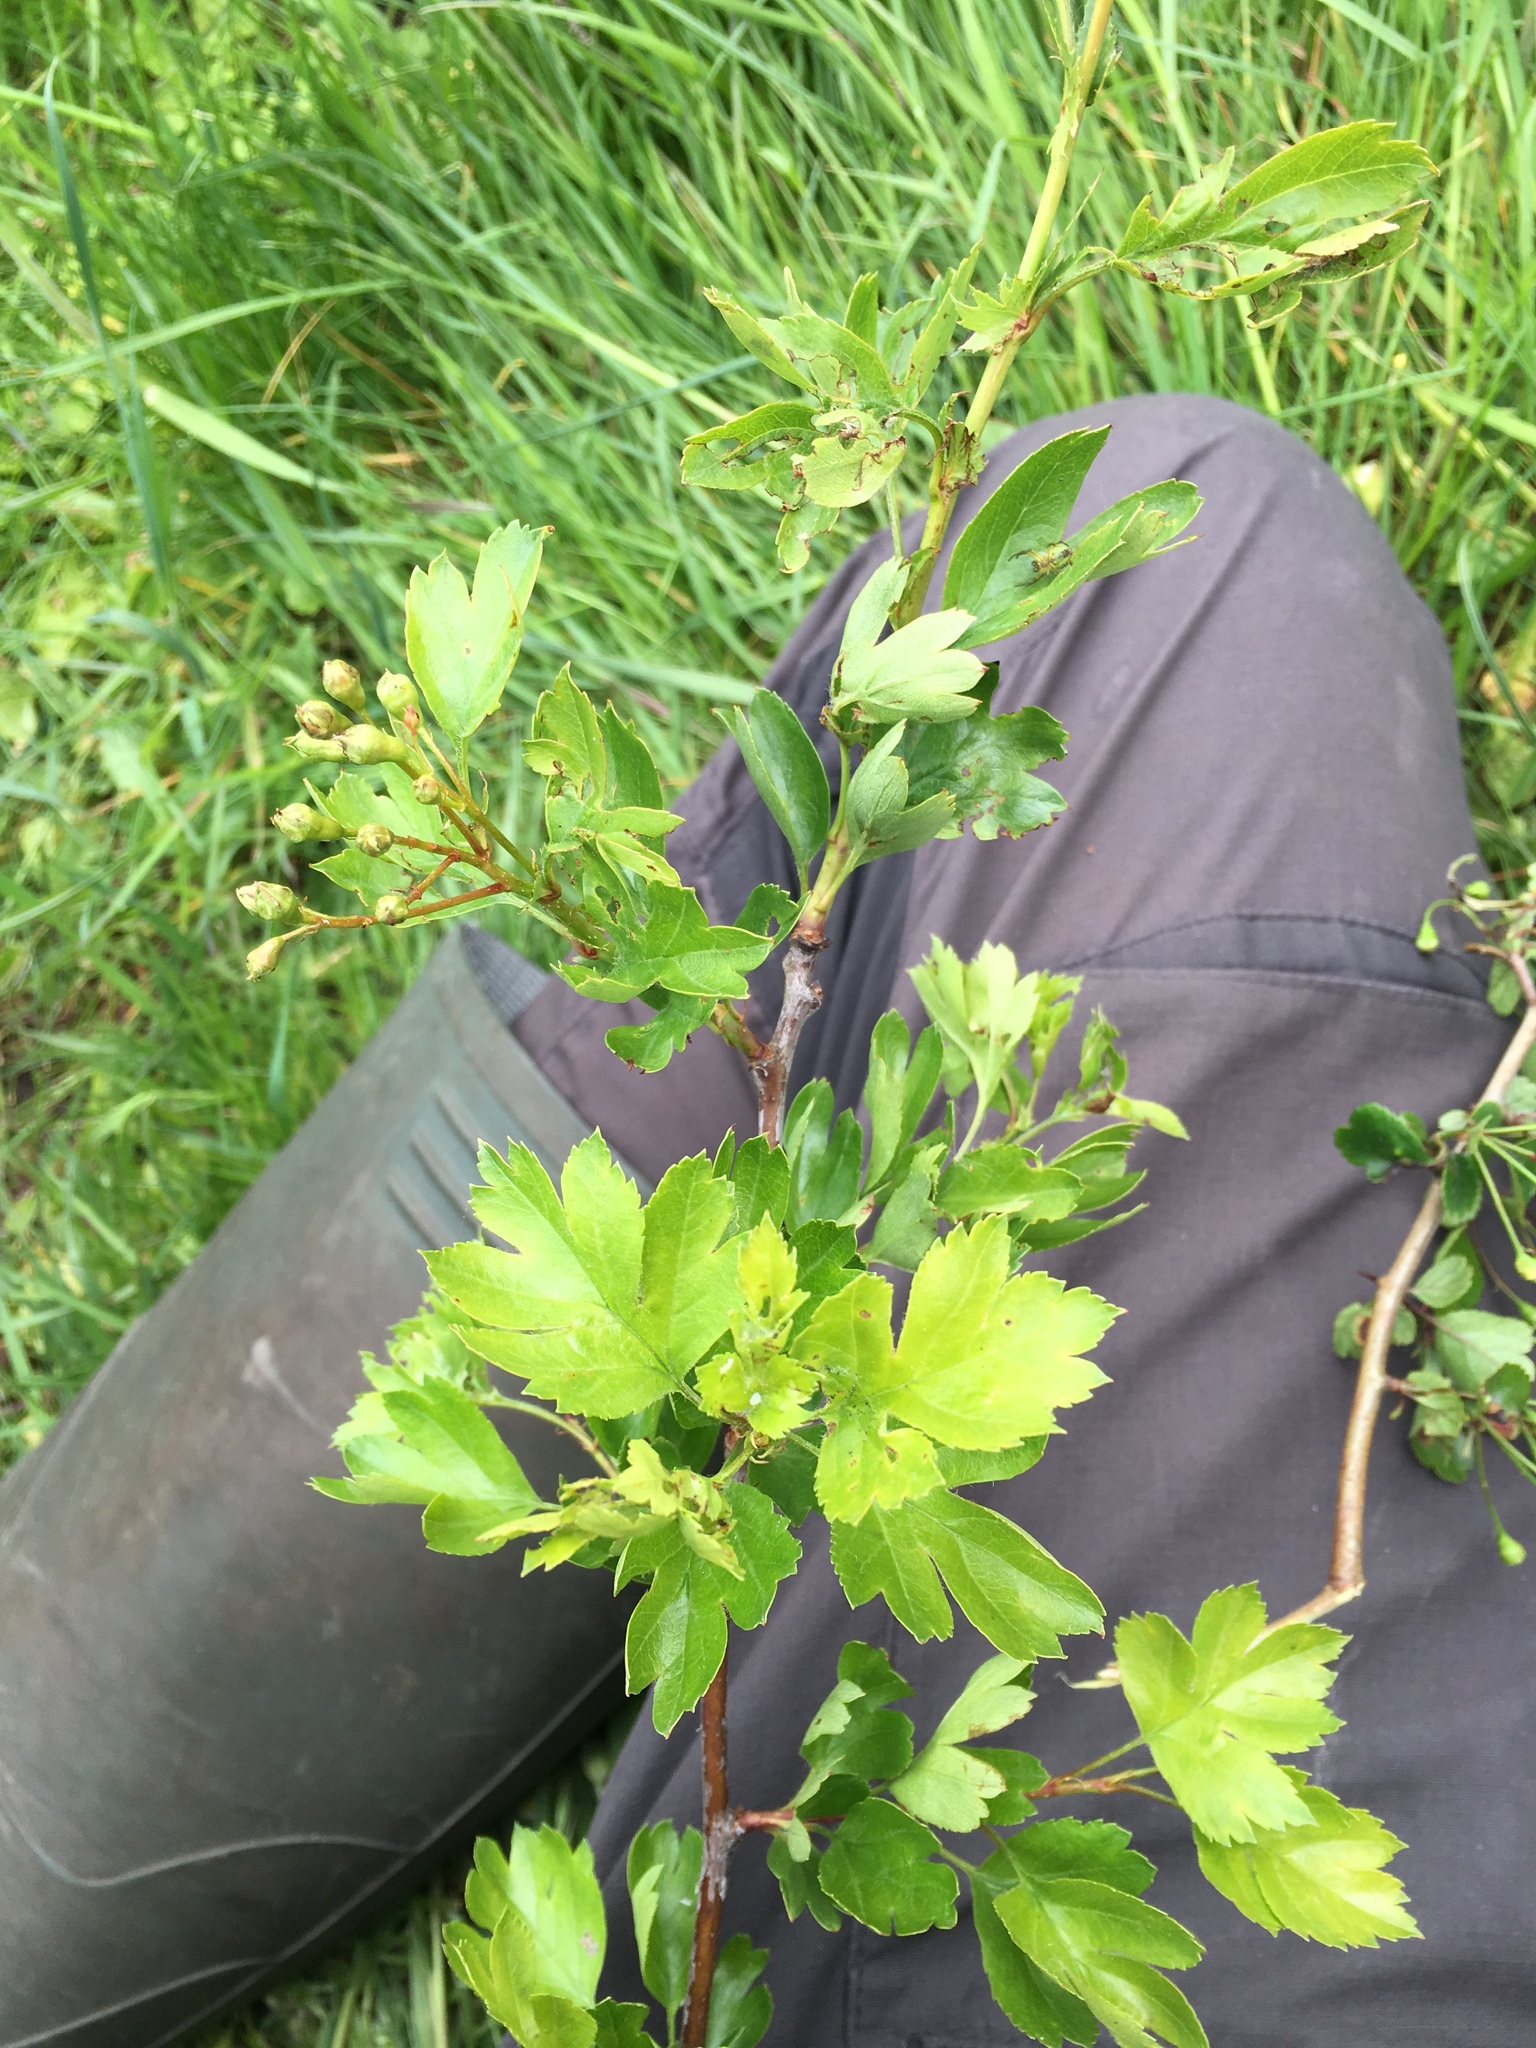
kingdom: Plantae
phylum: Tracheophyta
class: Magnoliopsida
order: Rosales
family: Rosaceae
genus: Crataegus
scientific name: Crataegus kyrtostyla
